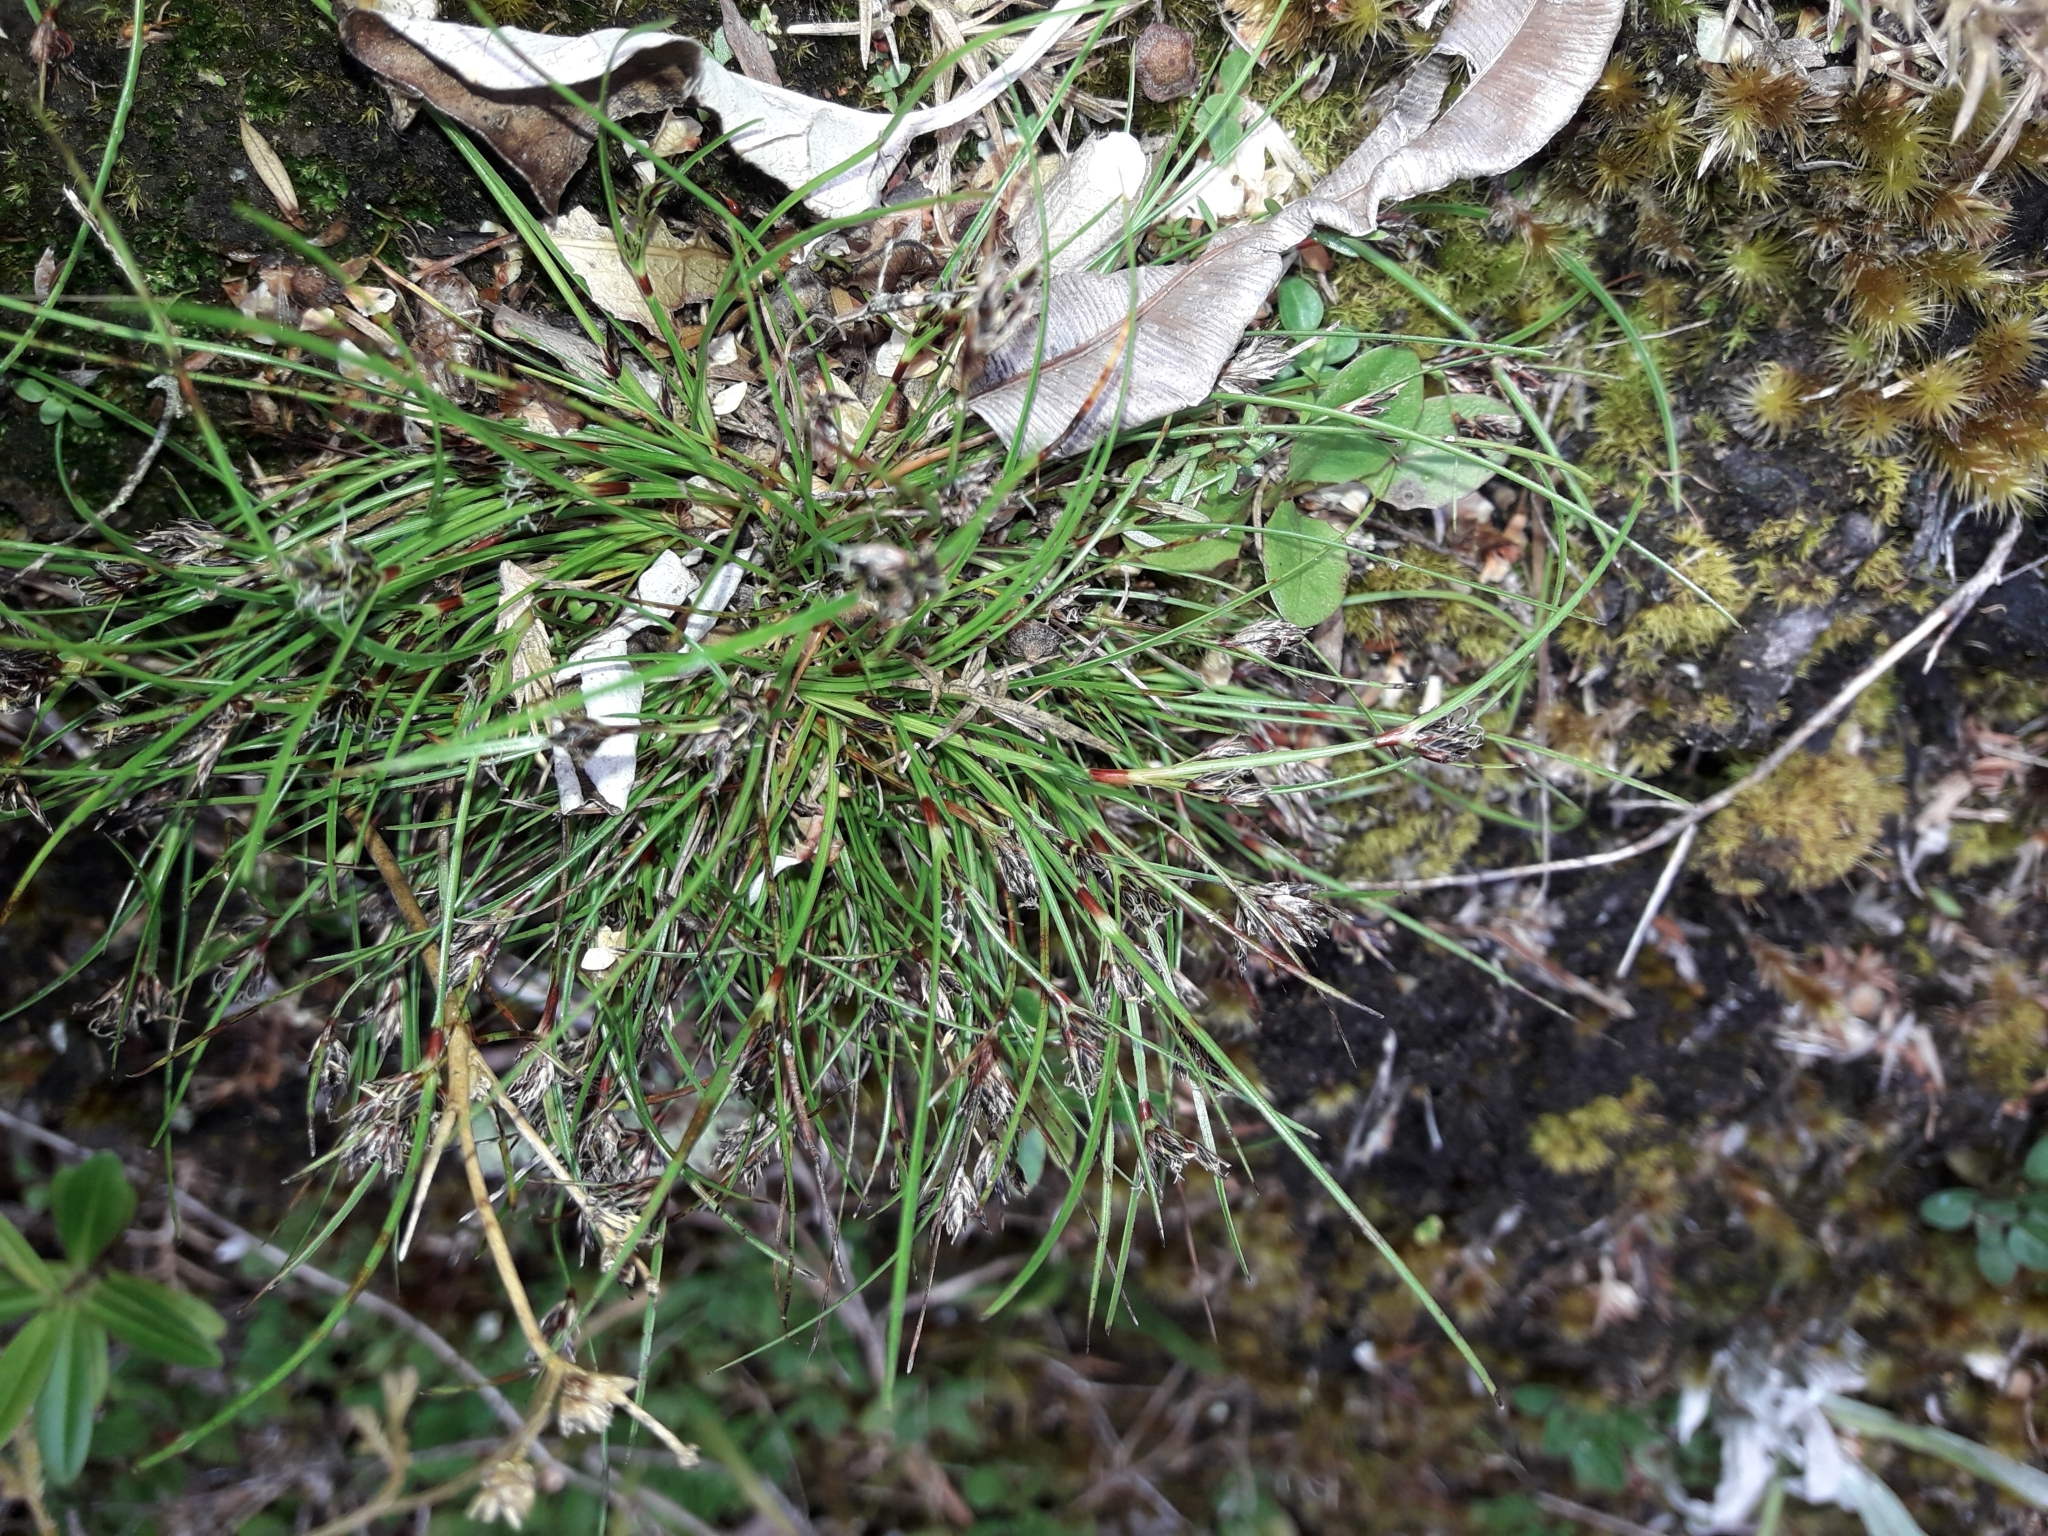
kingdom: Plantae
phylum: Tracheophyta
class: Liliopsida
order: Poales
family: Cyperaceae
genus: Schoenus
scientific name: Schoenus apogon
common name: Smooth bogrush
